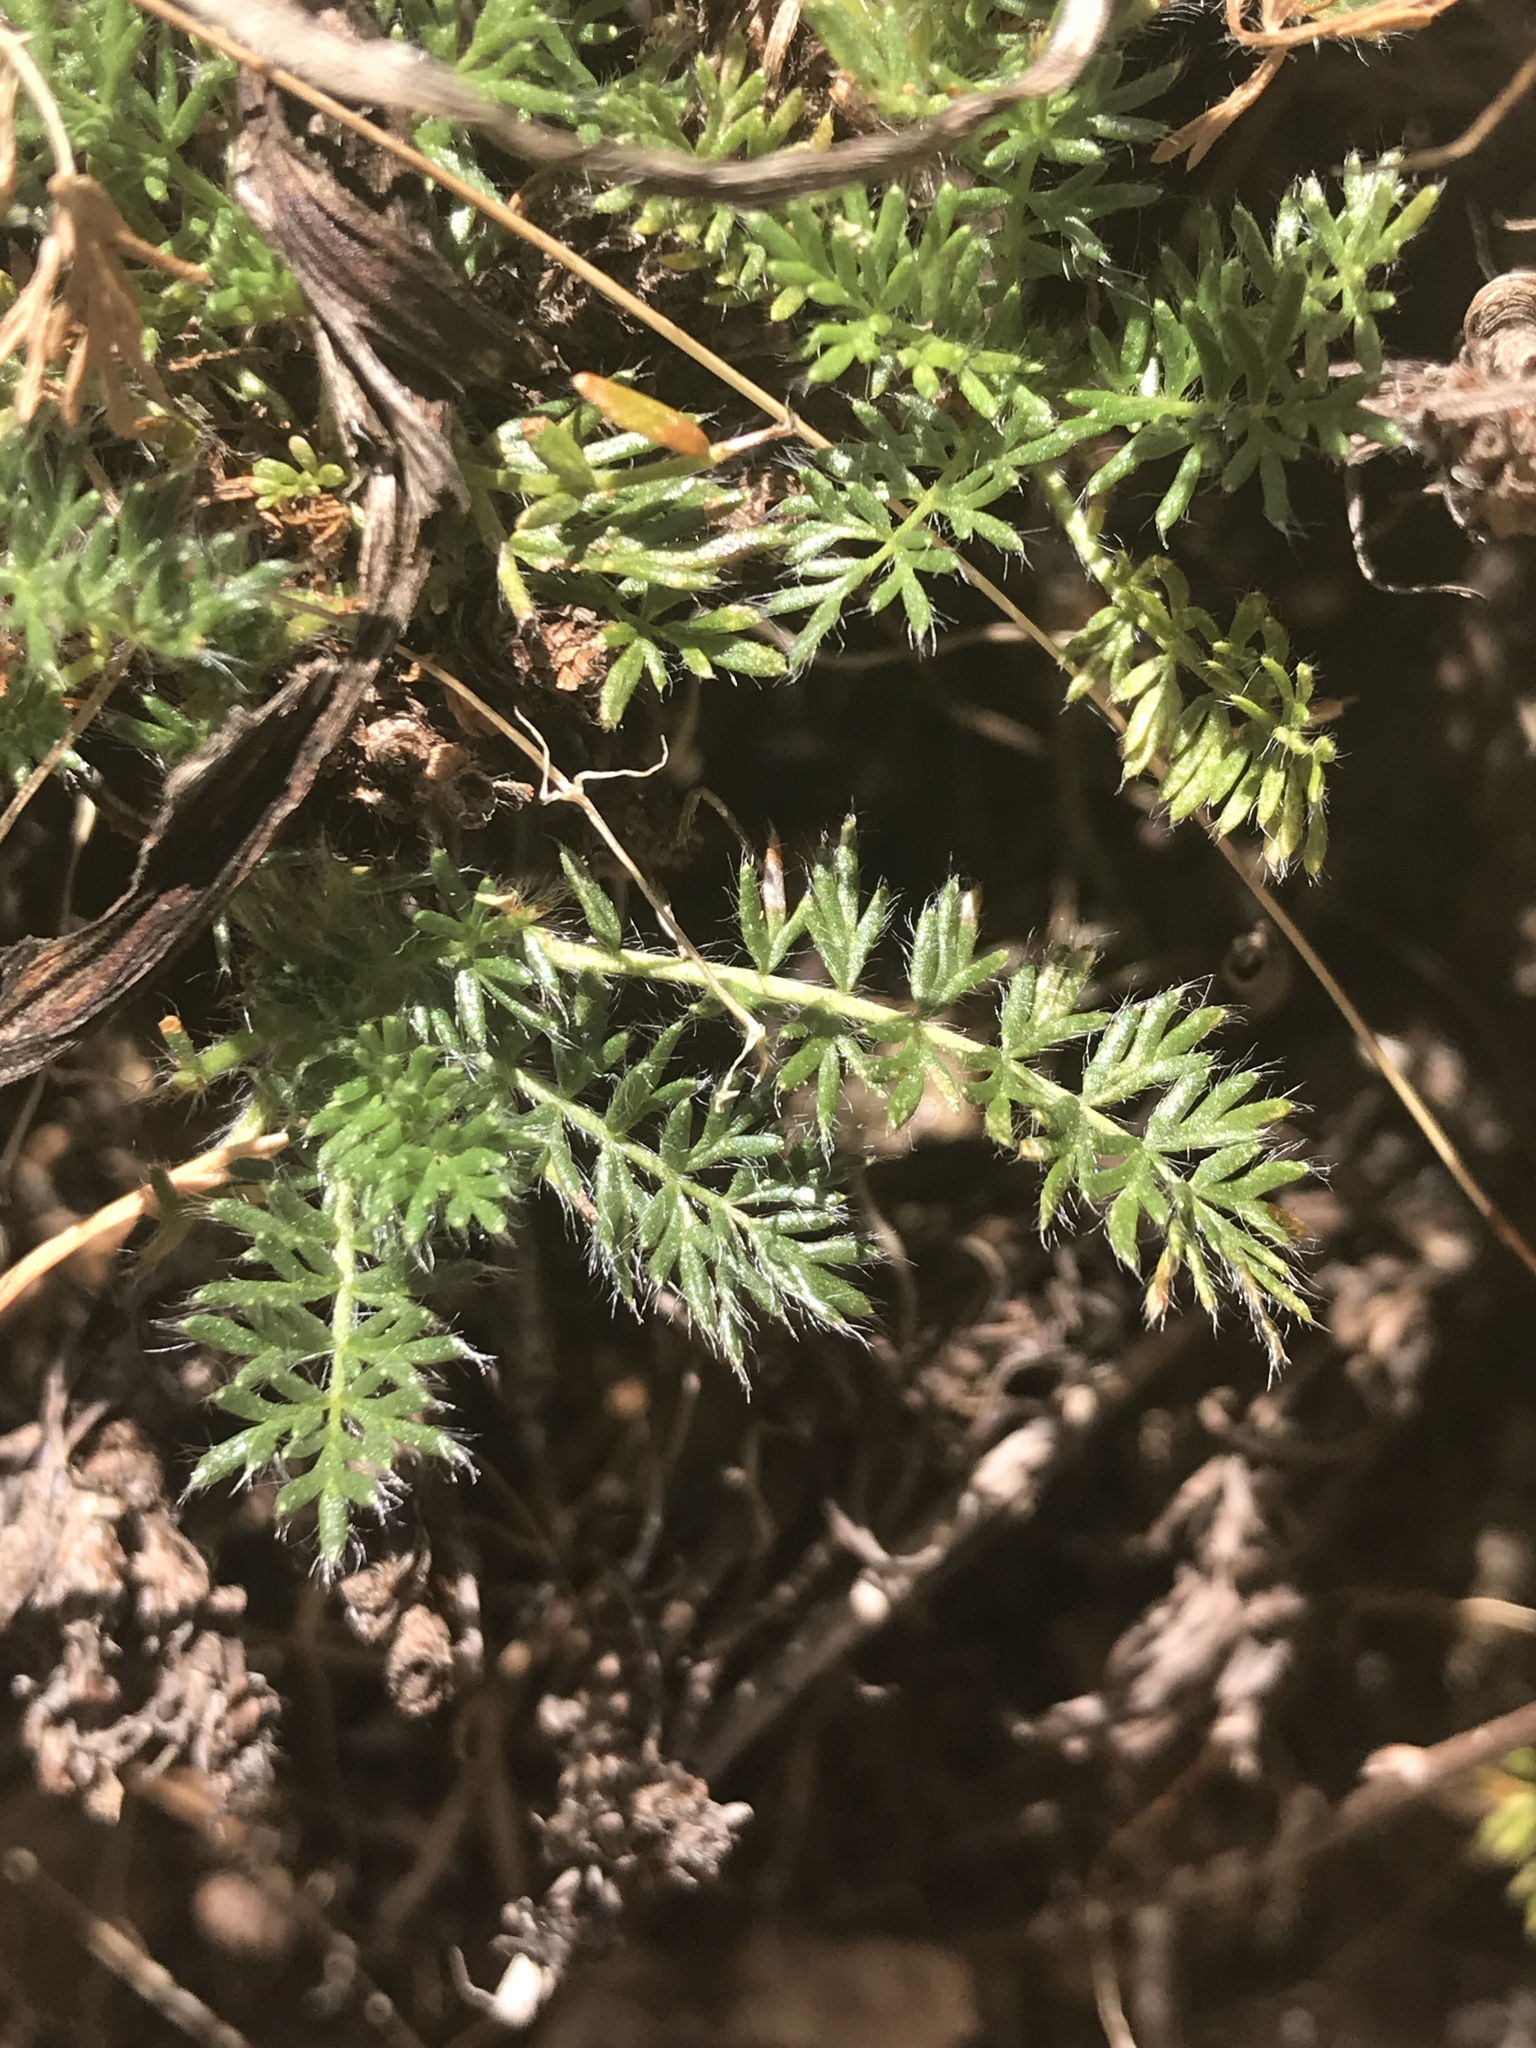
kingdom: Plantae
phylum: Tracheophyta
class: Magnoliopsida
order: Rosales
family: Rosaceae
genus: Acaena
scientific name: Acaena pinnatifida
